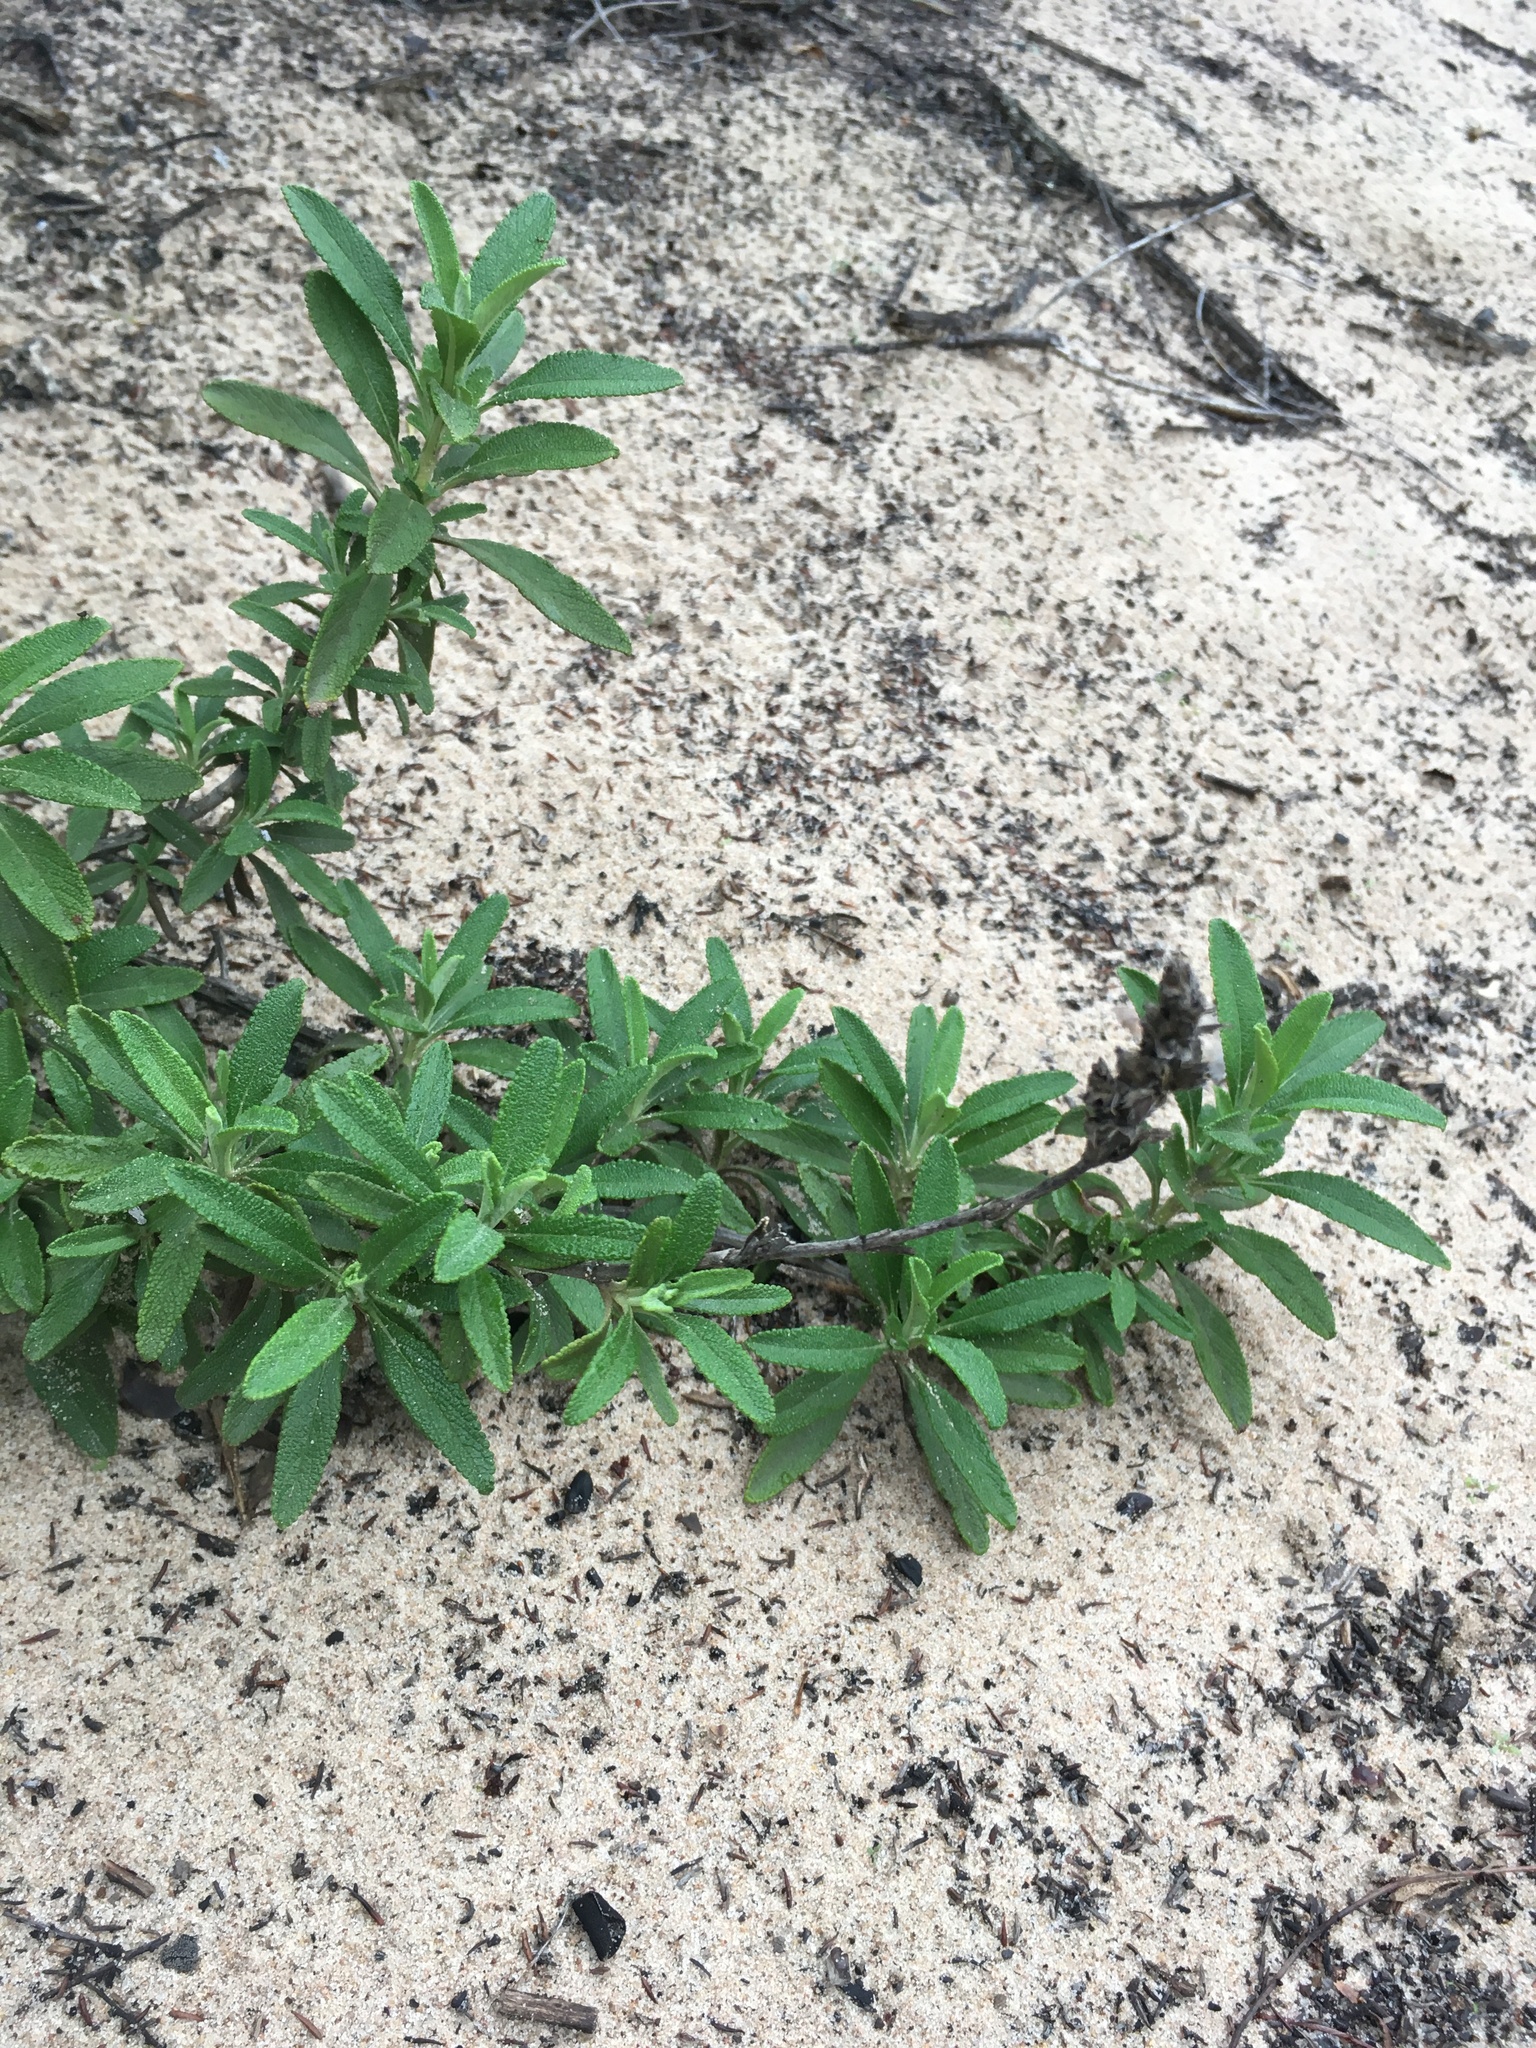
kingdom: Plantae
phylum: Tracheophyta
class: Magnoliopsida
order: Lamiales
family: Lamiaceae
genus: Salvia
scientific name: Salvia mellifera
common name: Black sage
